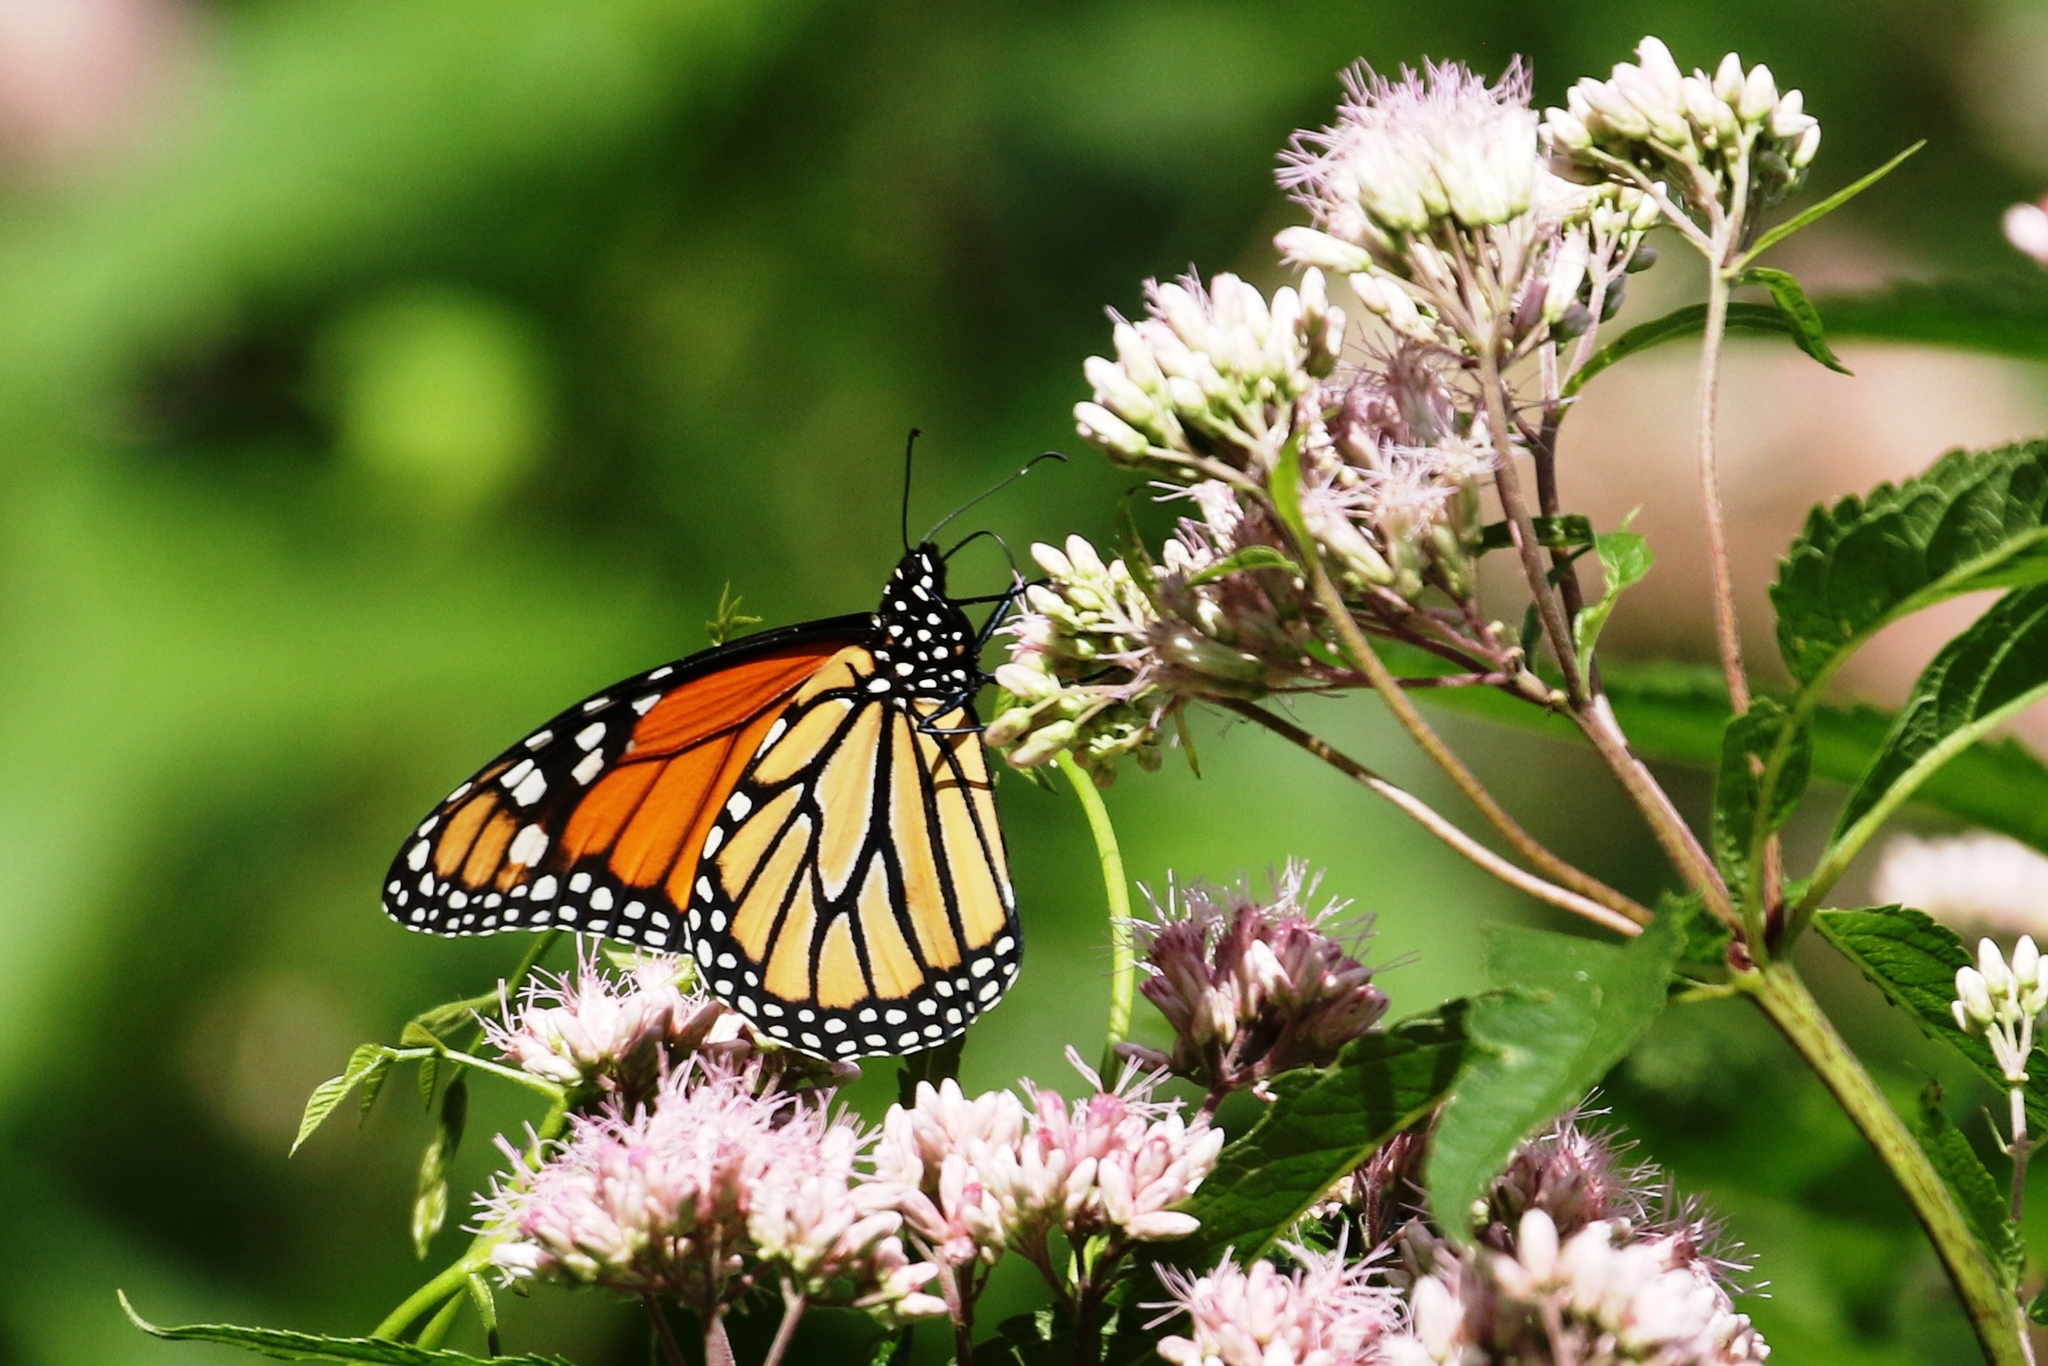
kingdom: Animalia
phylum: Arthropoda
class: Insecta
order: Lepidoptera
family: Nymphalidae
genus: Danaus
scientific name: Danaus plexippus
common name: Monarch
